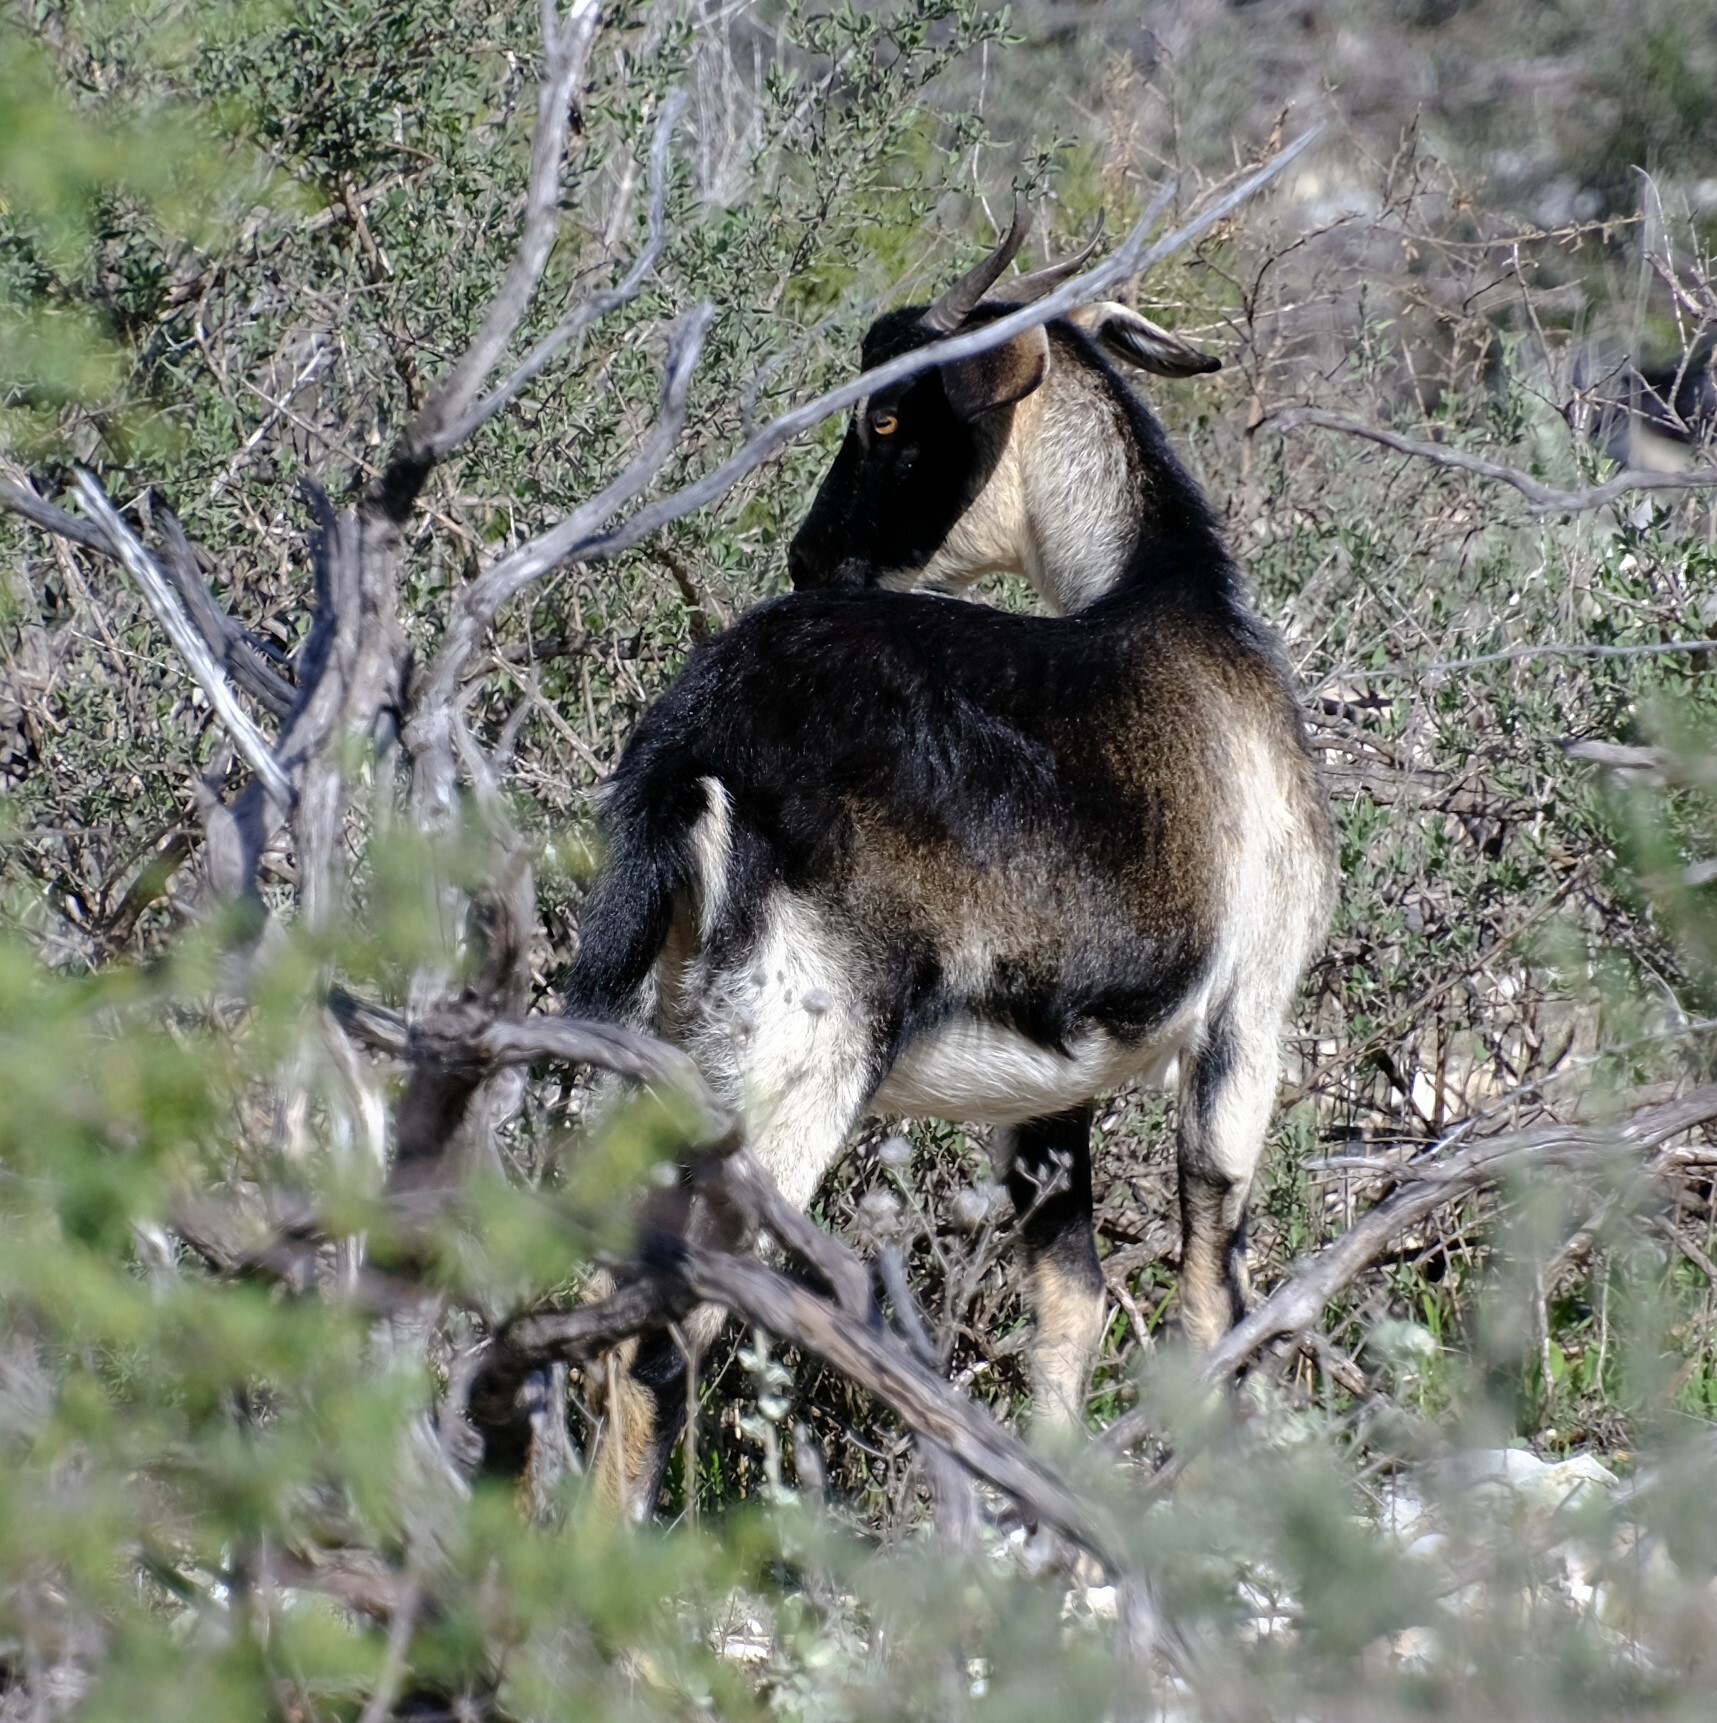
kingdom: Animalia
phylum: Chordata
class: Mammalia
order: Artiodactyla
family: Bovidae
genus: Capra
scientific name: Capra hircus
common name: Domestic goat
